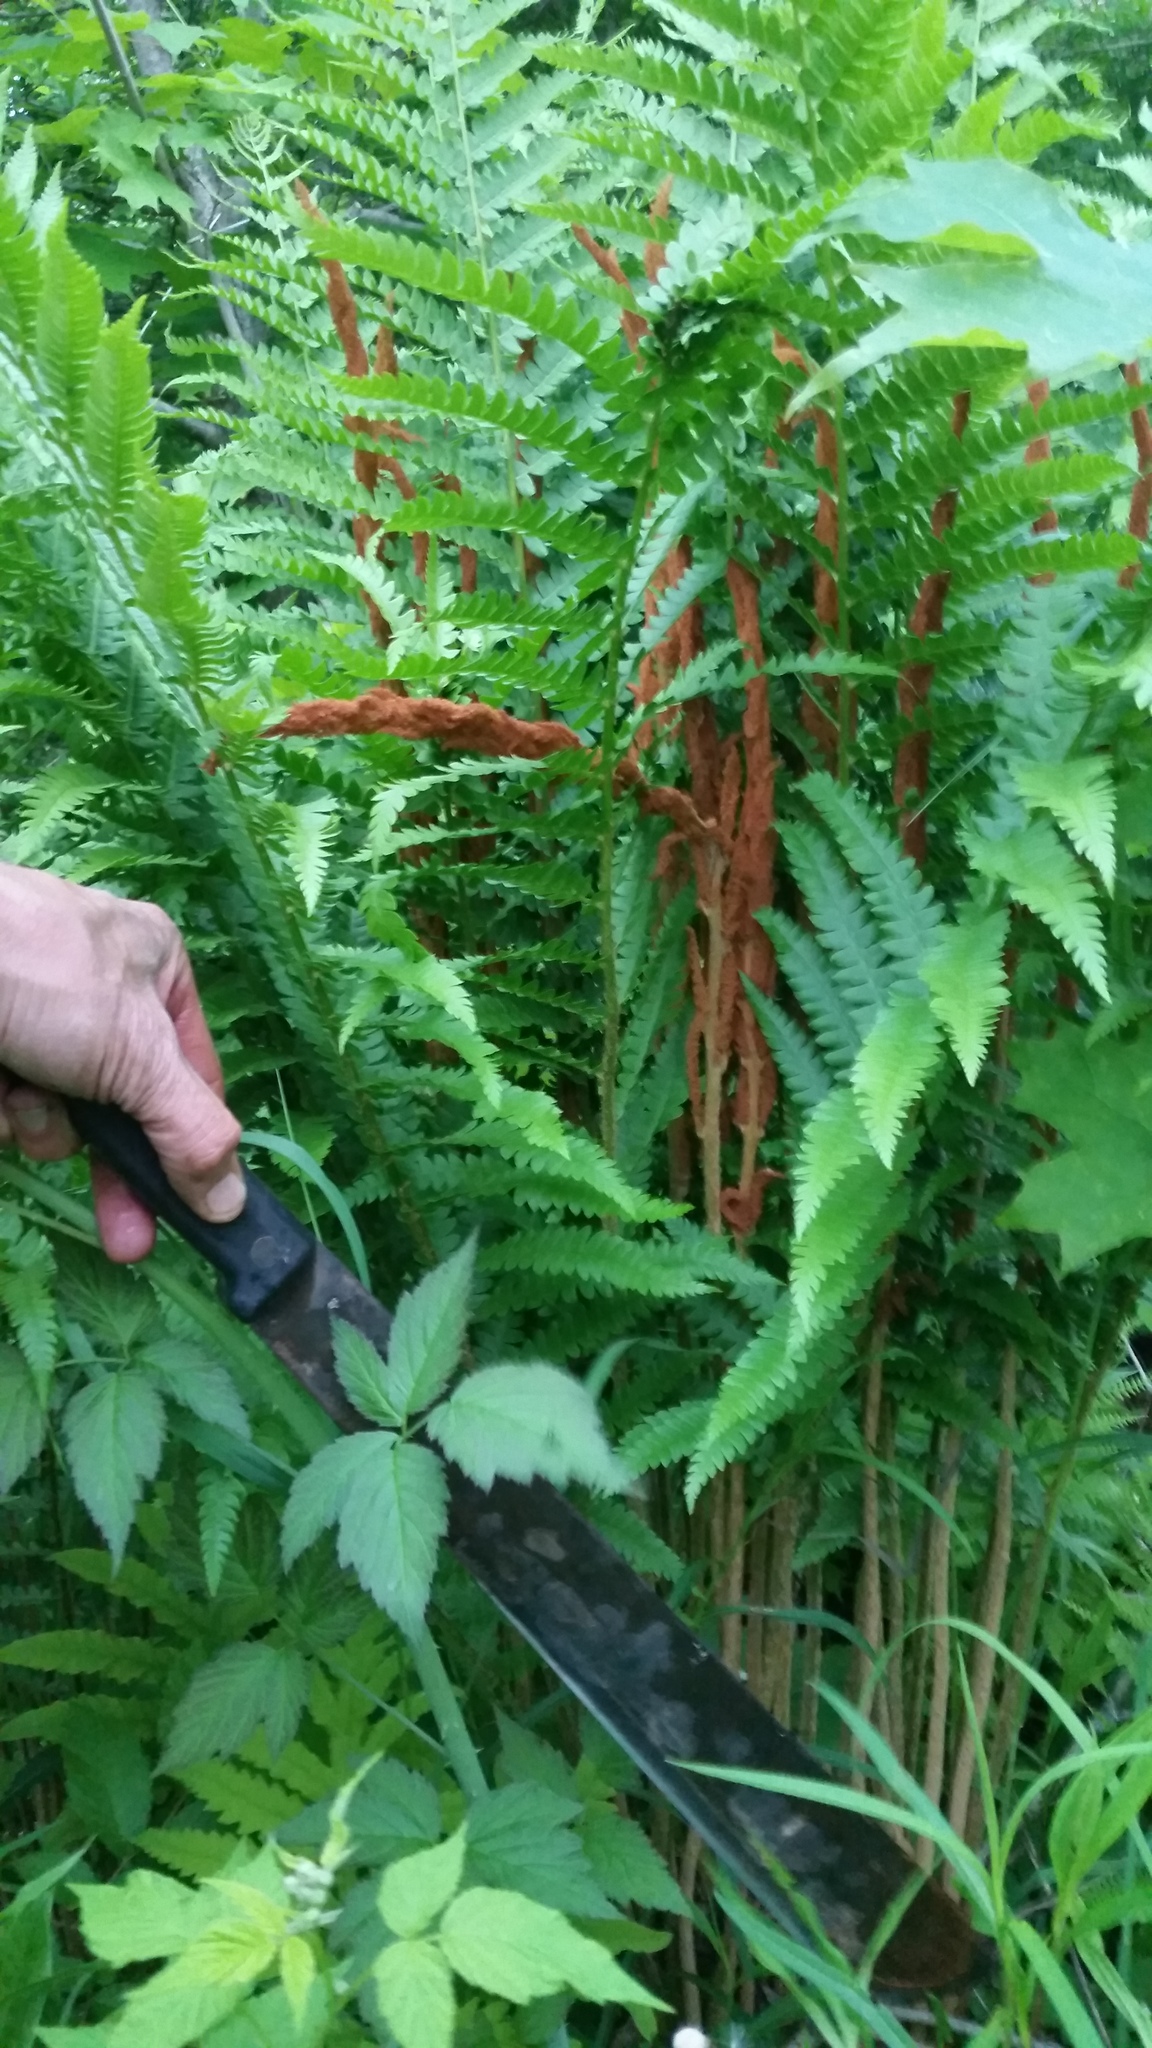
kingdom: Plantae
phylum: Tracheophyta
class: Polypodiopsida
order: Osmundales
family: Osmundaceae
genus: Osmundastrum
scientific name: Osmundastrum cinnamomeum
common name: Cinnamon fern
